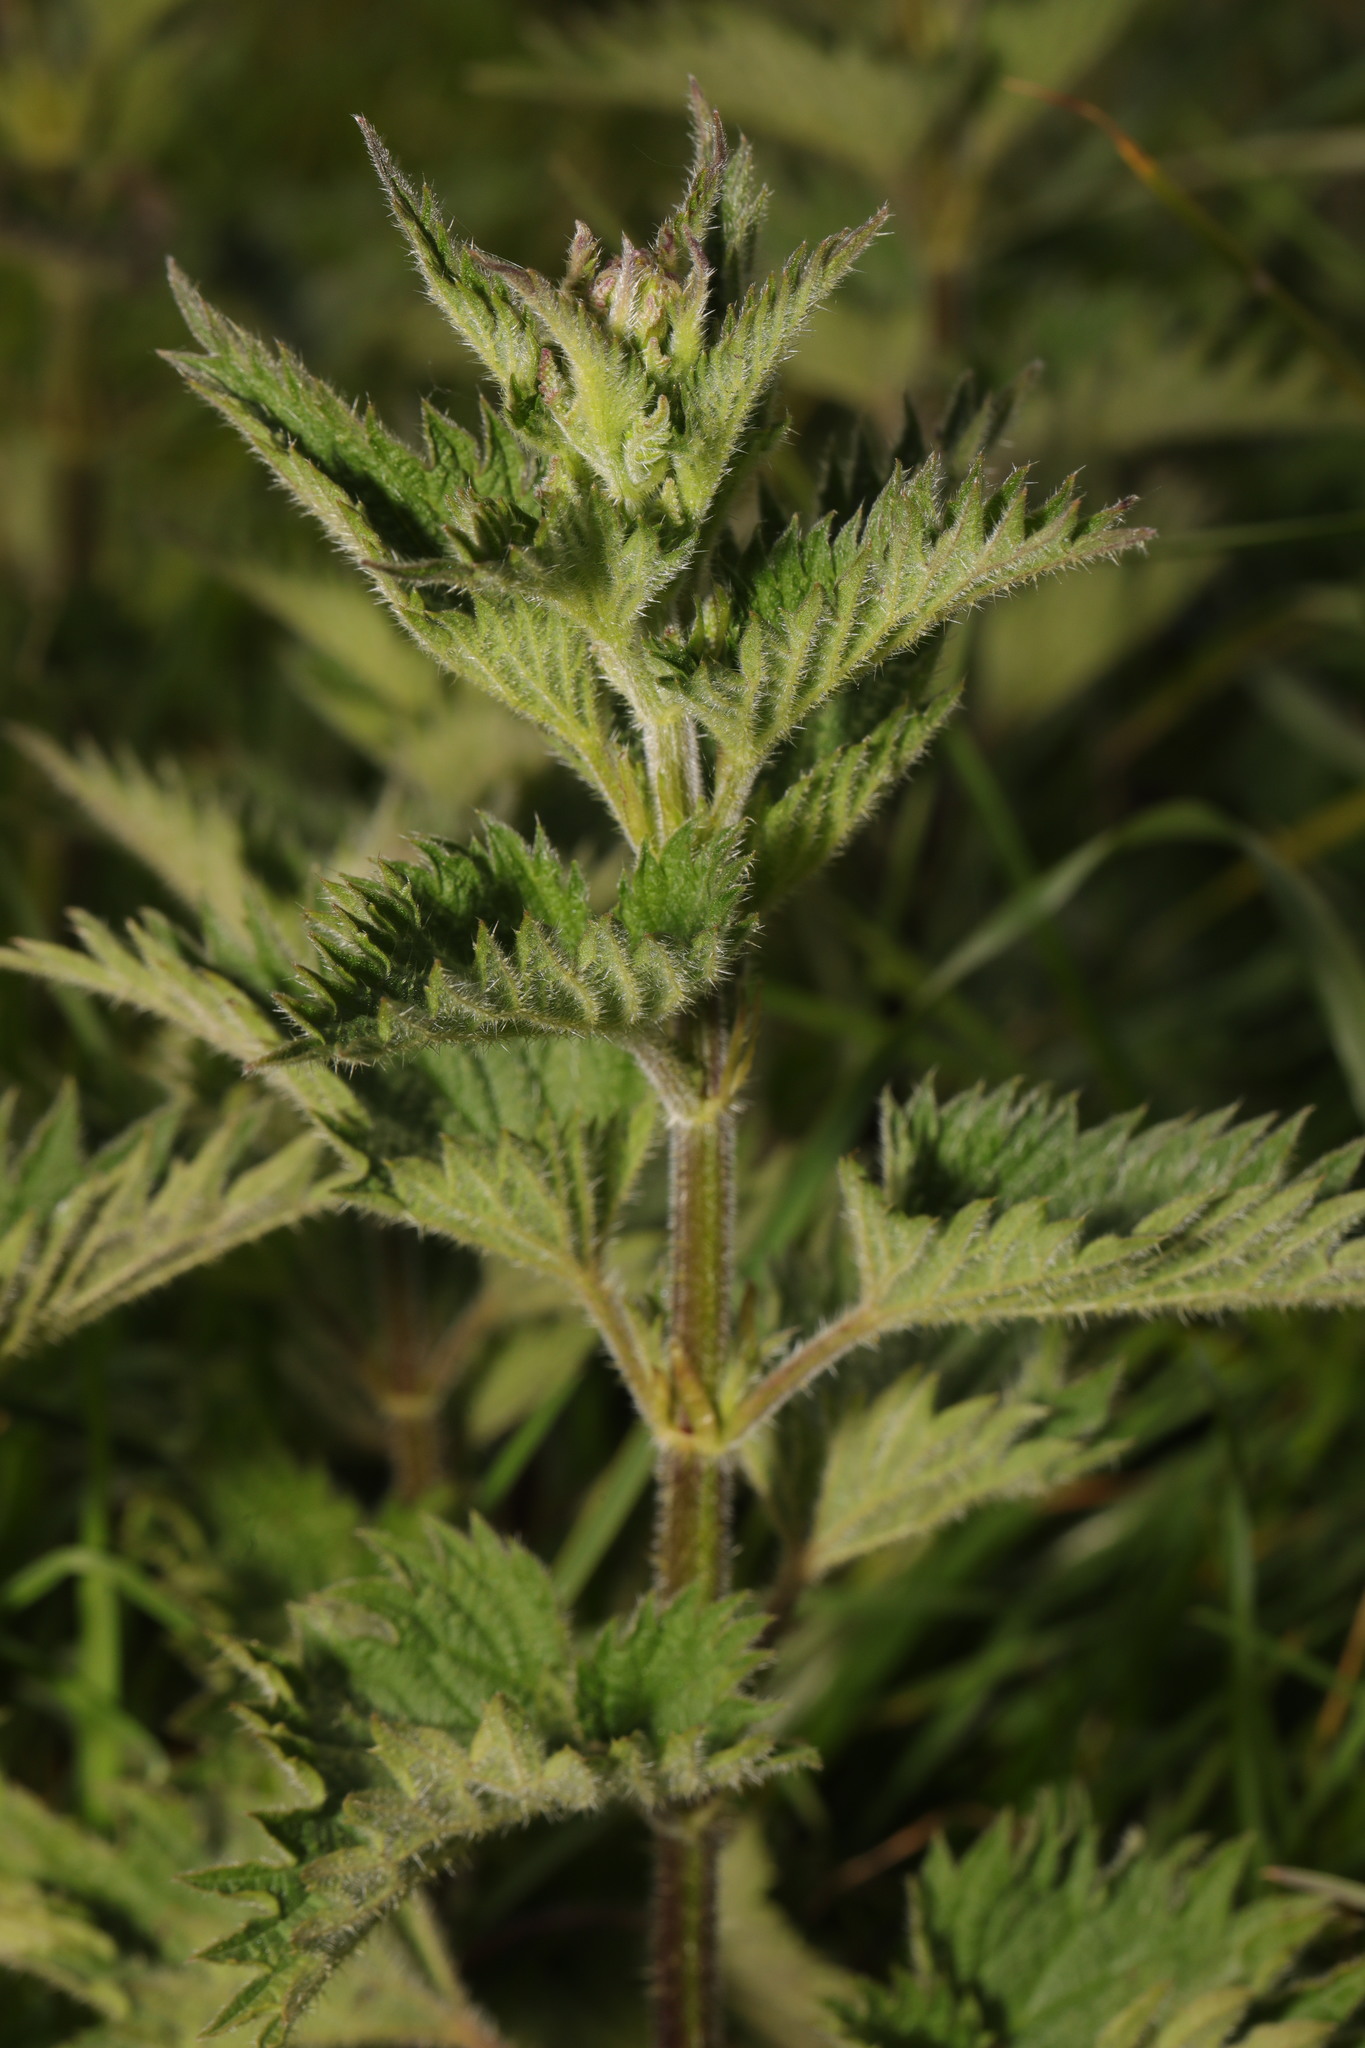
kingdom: Plantae
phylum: Tracheophyta
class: Magnoliopsida
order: Rosales
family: Urticaceae
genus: Urtica
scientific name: Urtica dioica
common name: Common nettle
